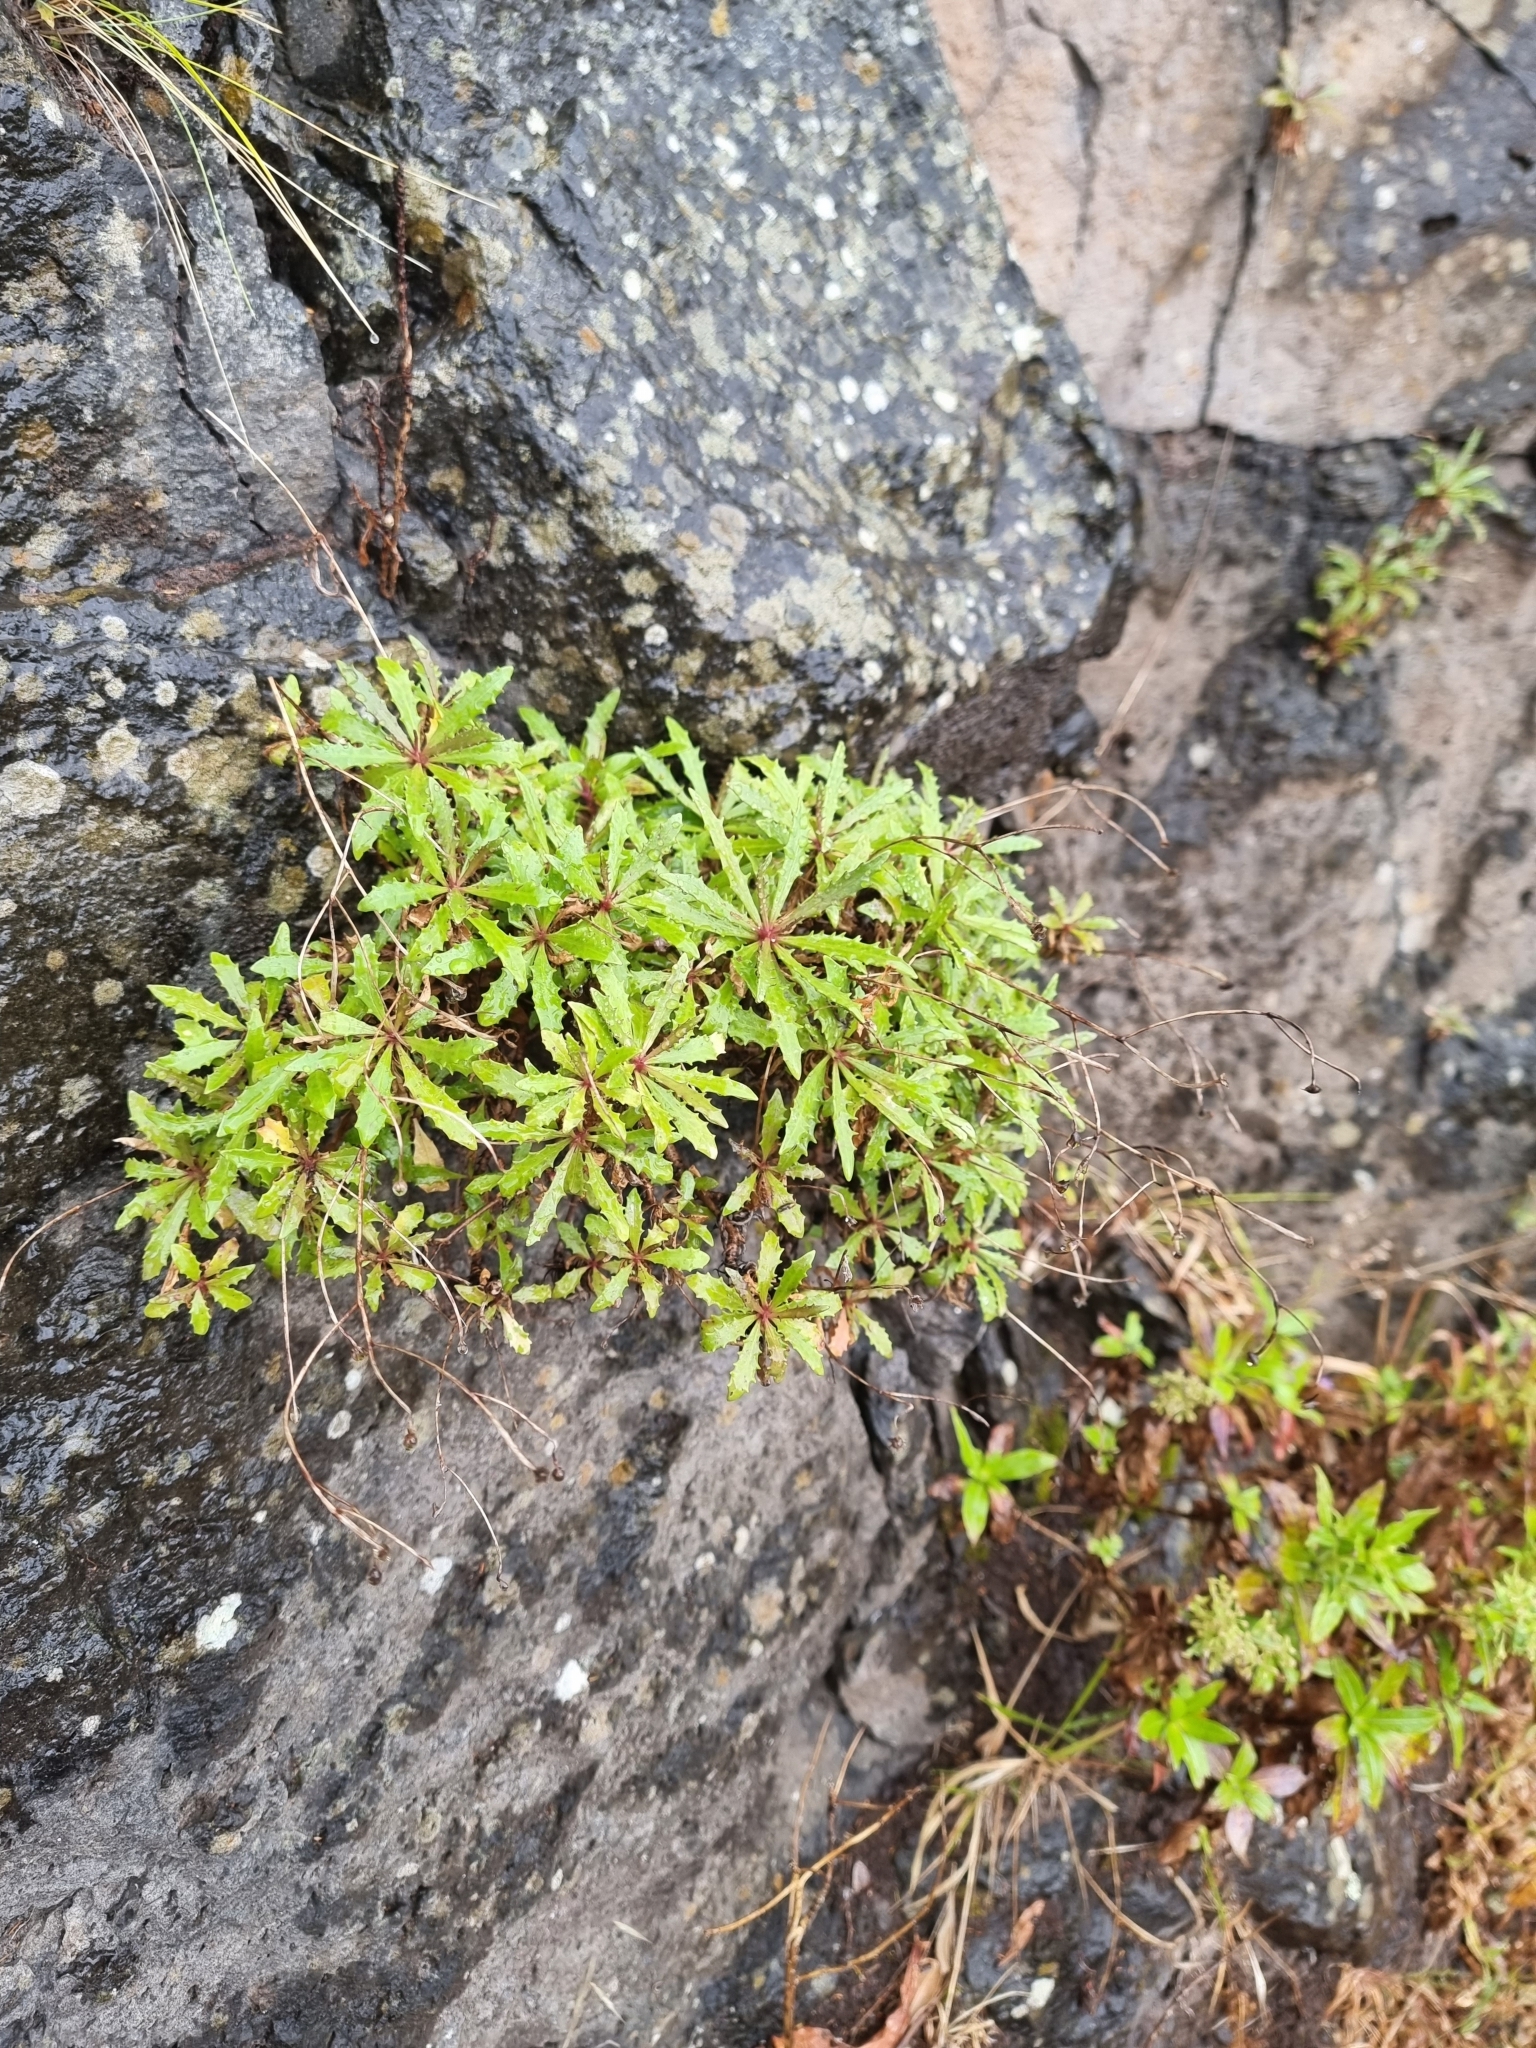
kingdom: Plantae
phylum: Tracheophyta
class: Magnoliopsida
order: Asterales
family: Asteraceae
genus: Tolpis
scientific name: Tolpis succulenta
